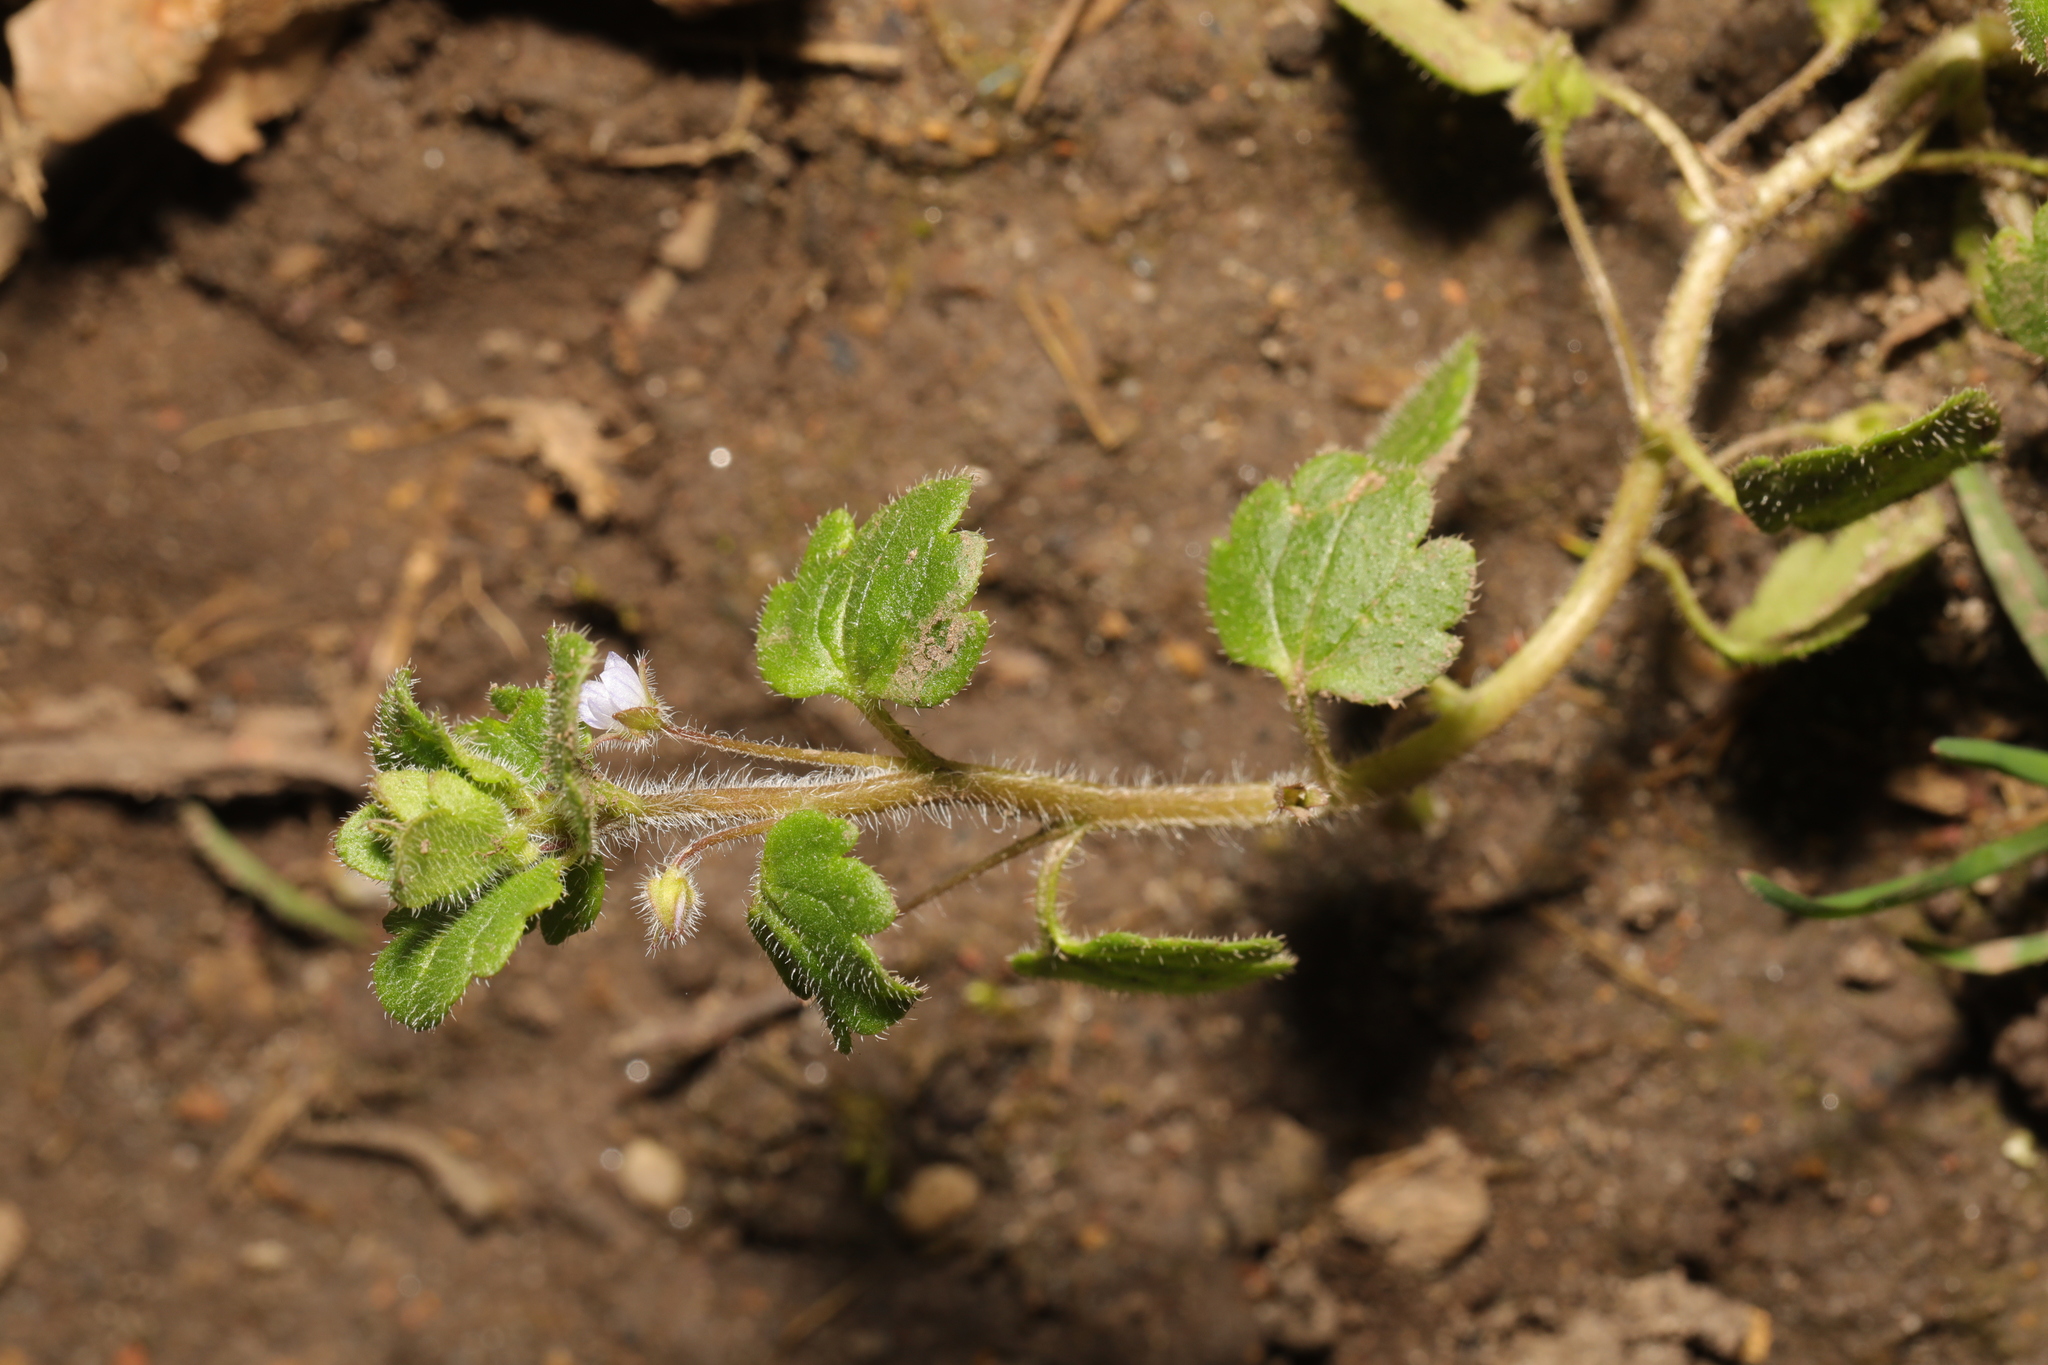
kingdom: Plantae
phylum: Tracheophyta
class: Magnoliopsida
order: Lamiales
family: Plantaginaceae
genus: Veronica
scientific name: Veronica sublobata
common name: False ivy-leaved speedwell
